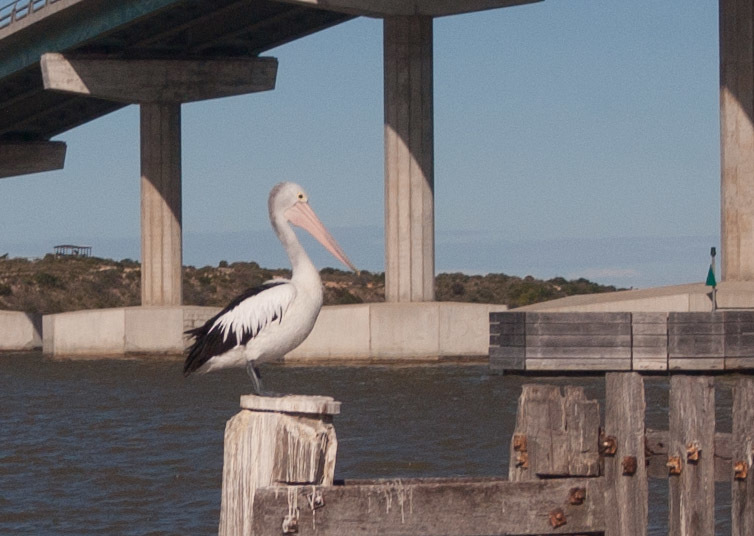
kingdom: Animalia
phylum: Chordata
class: Aves
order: Pelecaniformes
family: Pelecanidae
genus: Pelecanus
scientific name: Pelecanus conspicillatus
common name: Australian pelican
